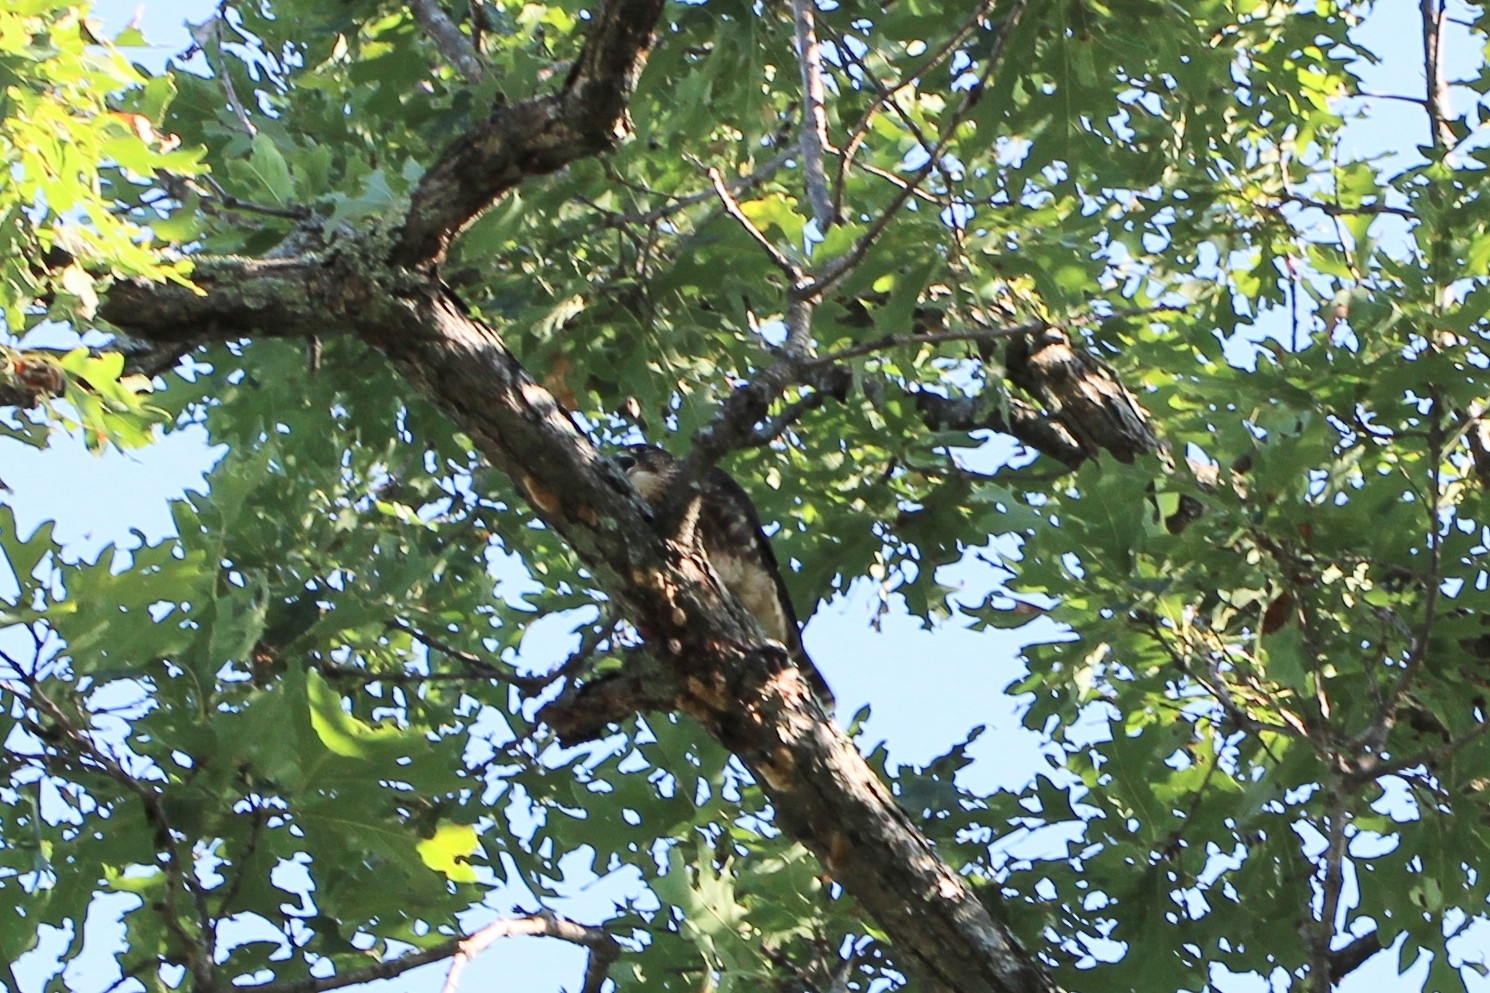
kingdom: Animalia
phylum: Chordata
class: Aves
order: Falconiformes
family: Falconidae
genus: Falco
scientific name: Falco columbarius
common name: Merlin
